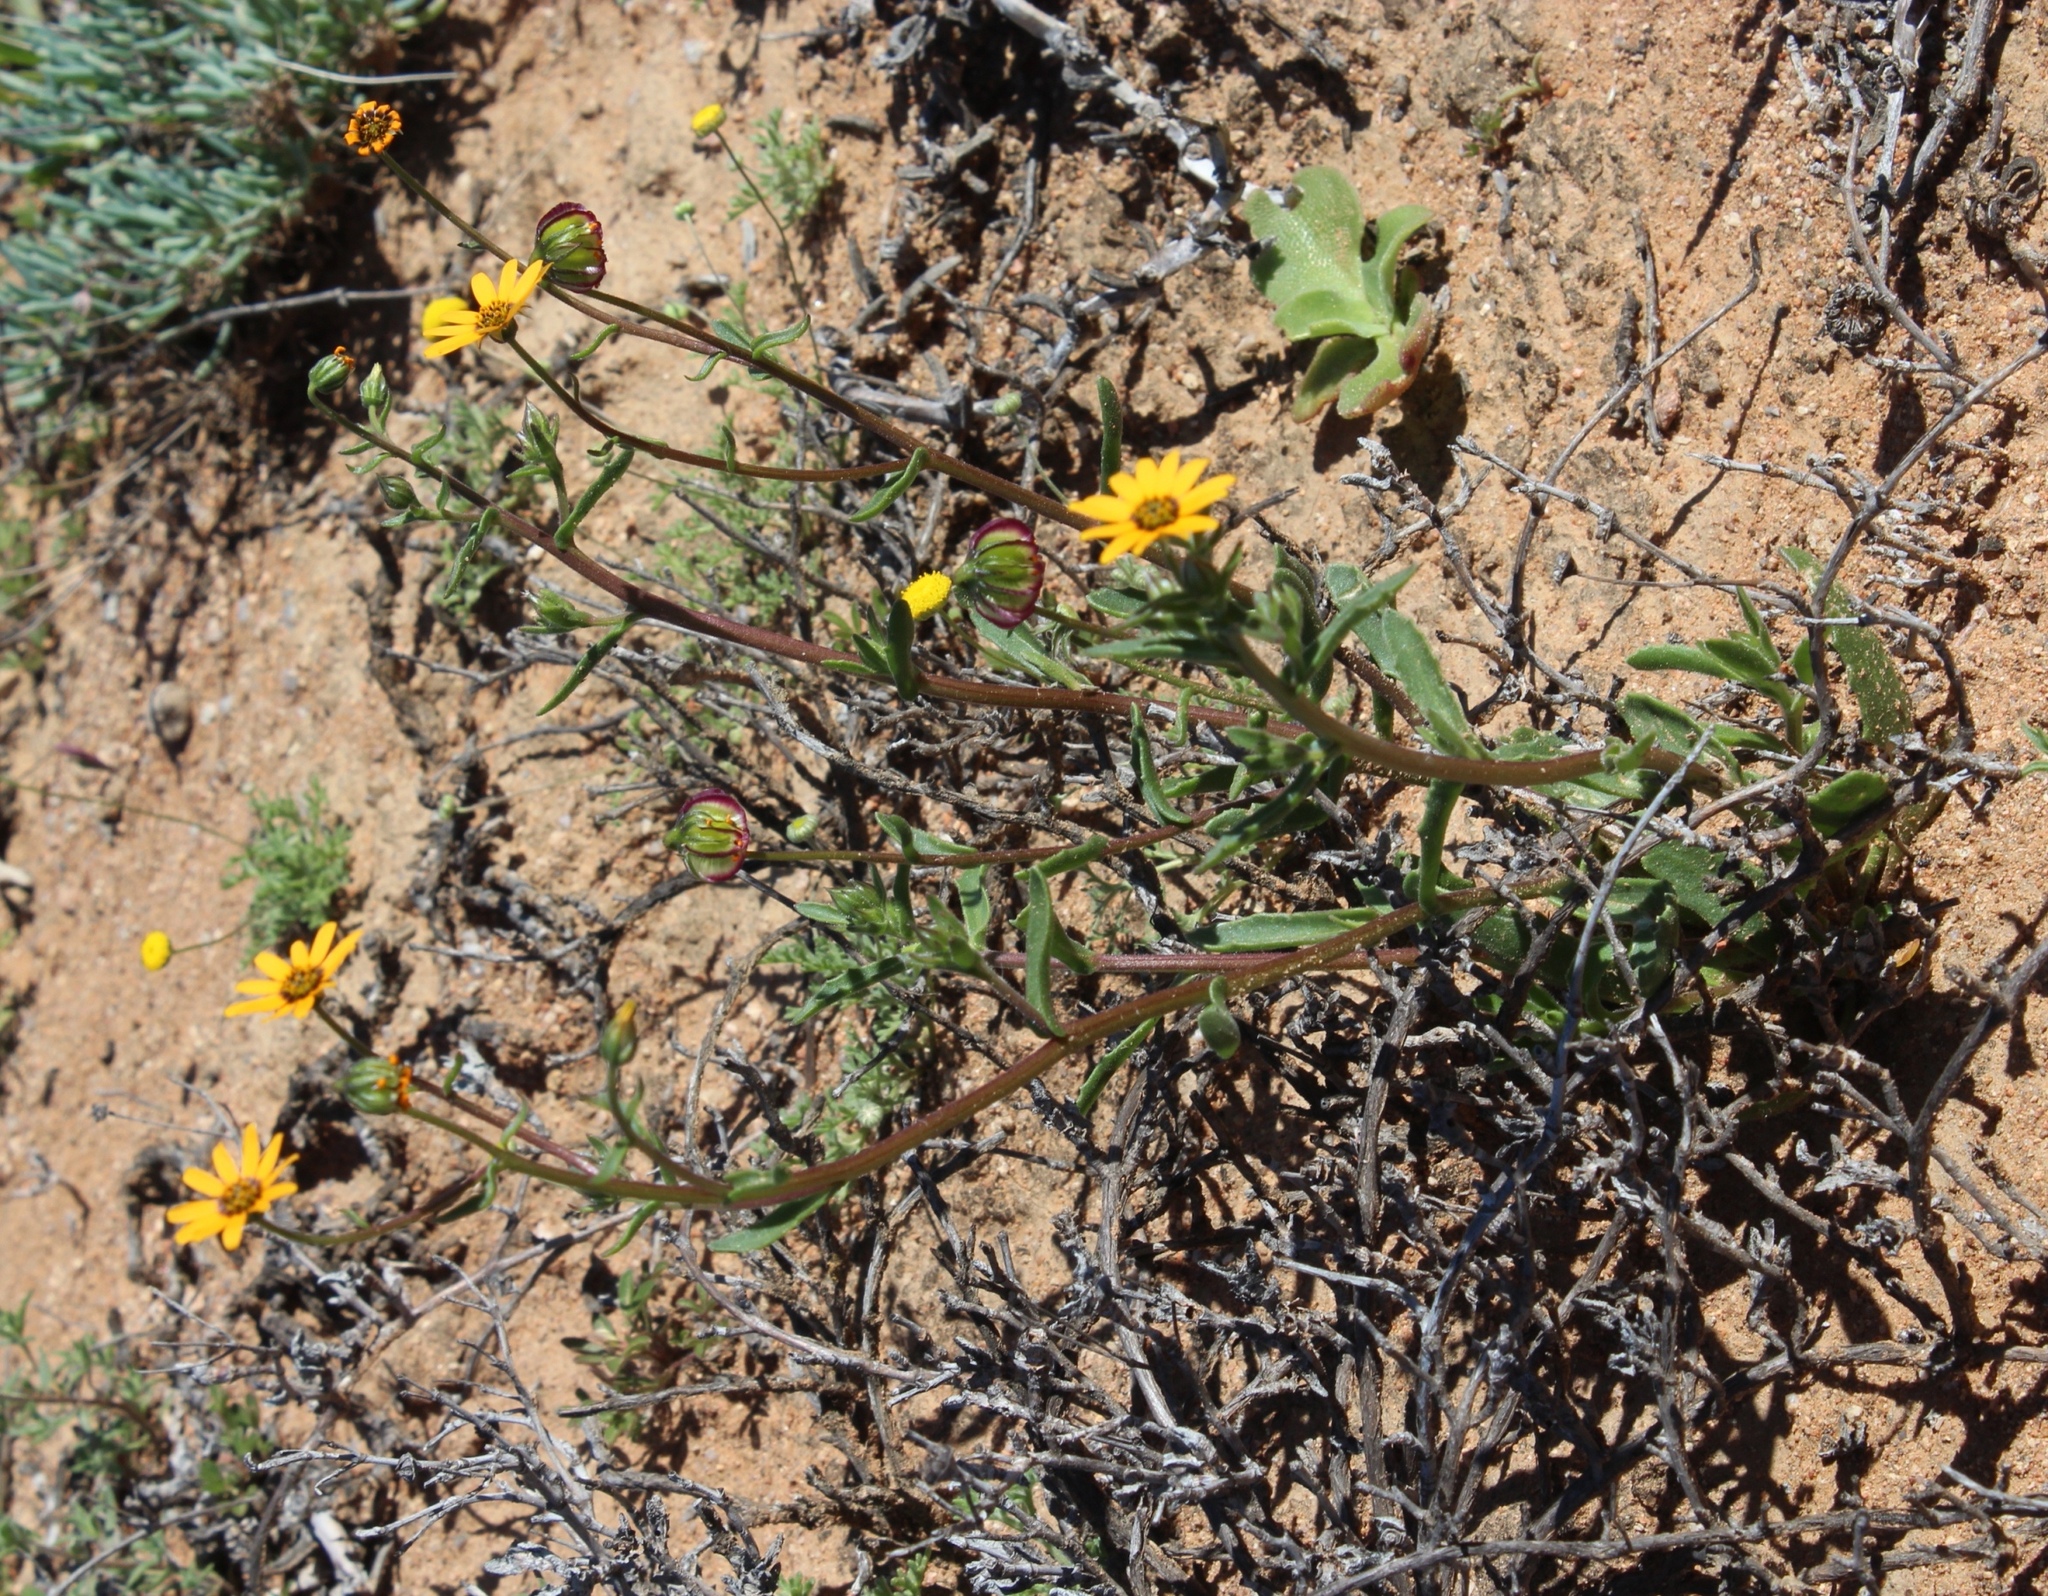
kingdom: Plantae
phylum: Tracheophyta
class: Magnoliopsida
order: Asterales
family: Asteraceae
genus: Osteospermum
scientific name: Osteospermum monstrosum
